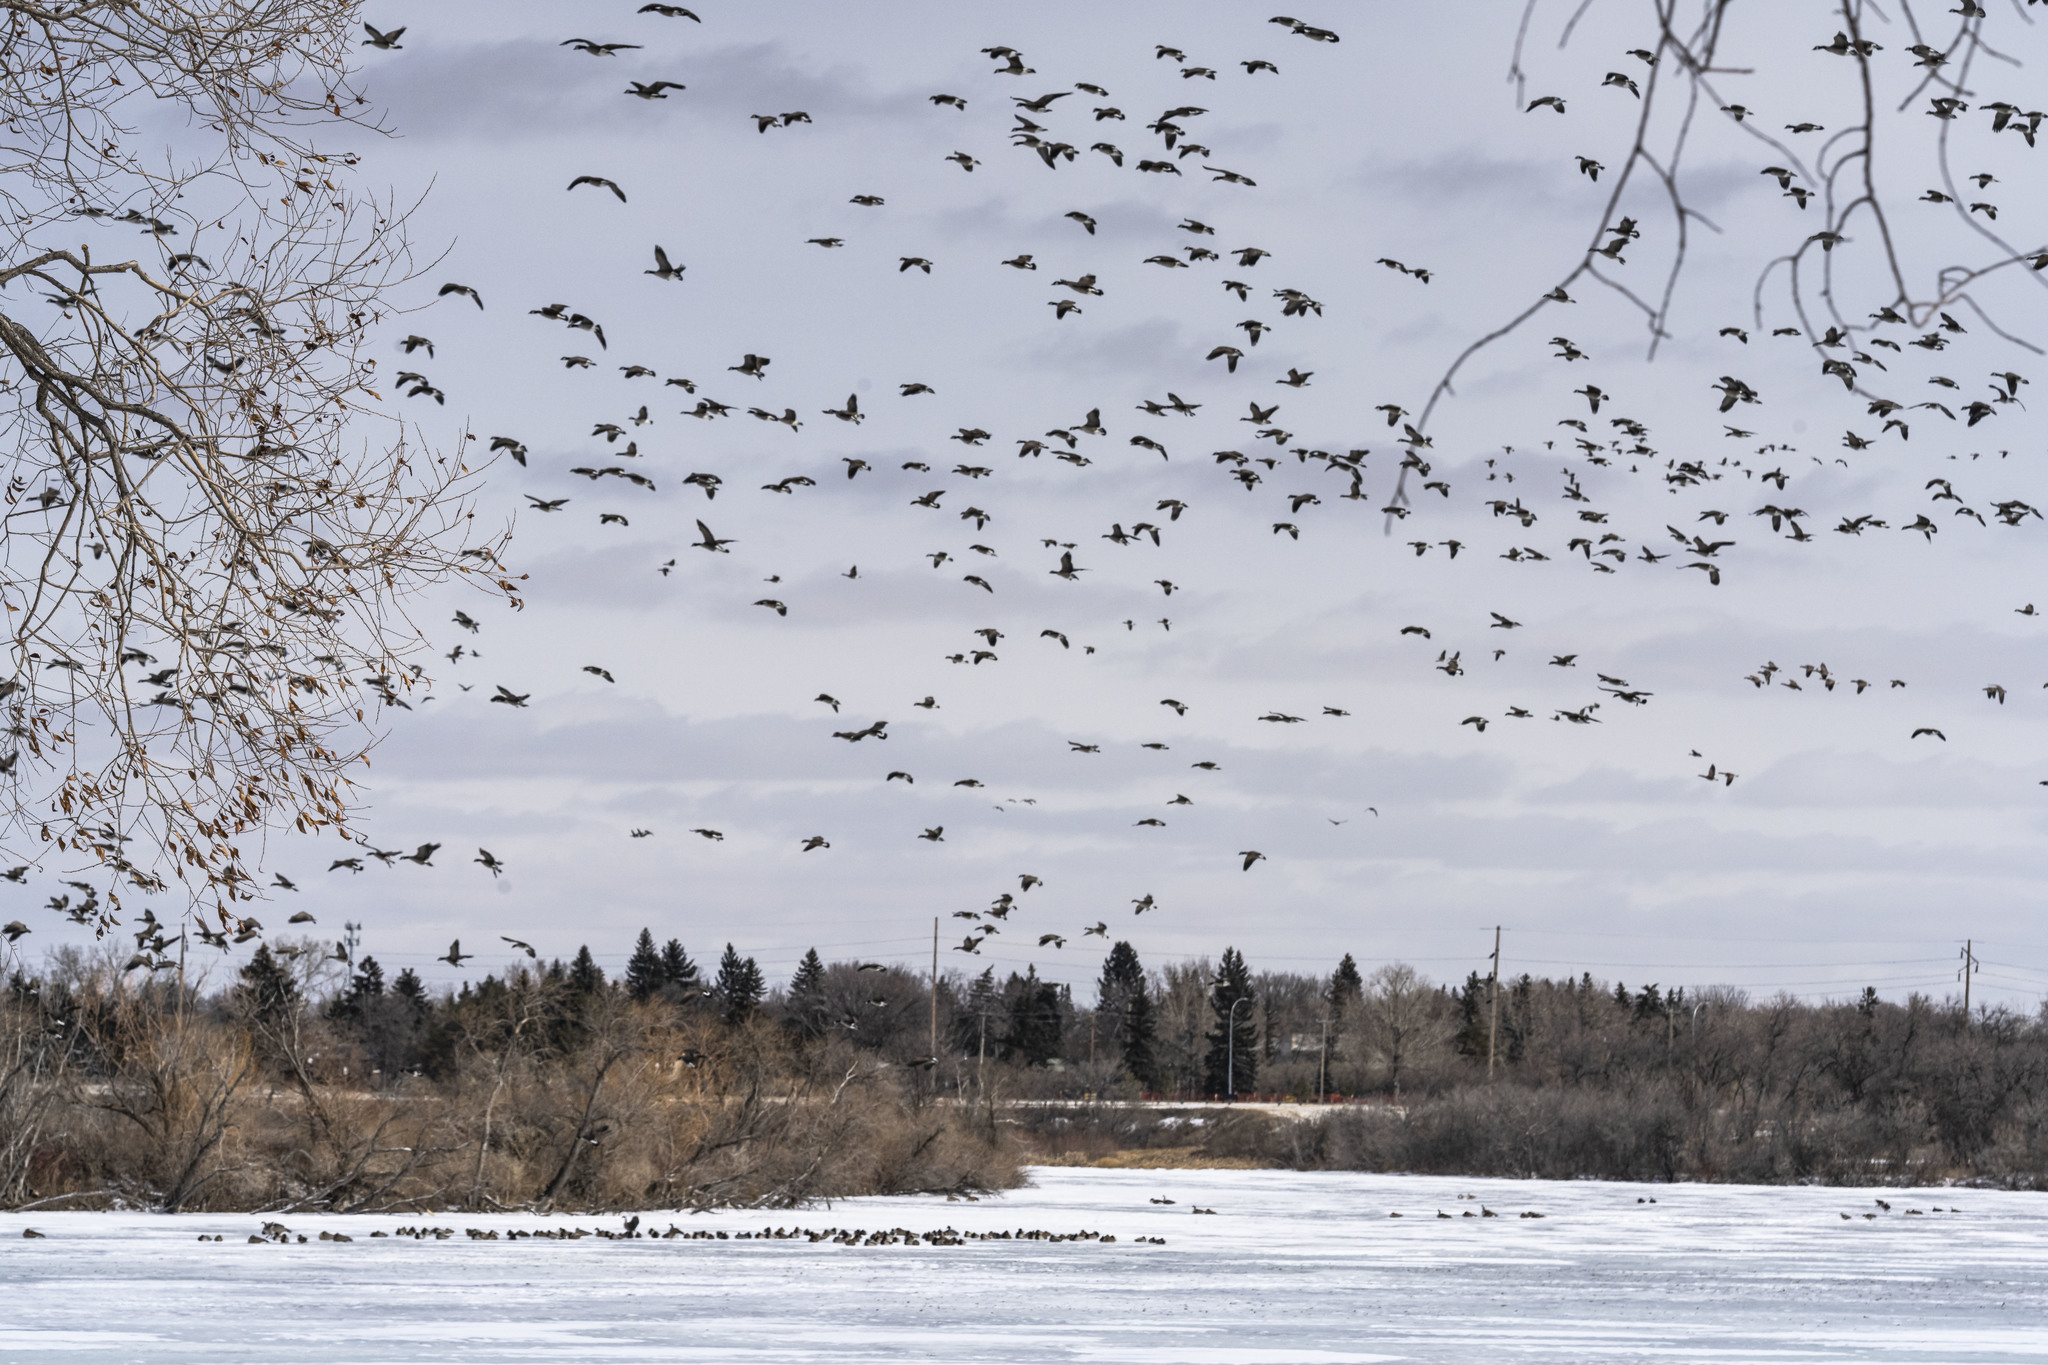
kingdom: Animalia
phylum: Chordata
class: Aves
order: Anseriformes
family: Anatidae
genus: Branta
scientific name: Branta canadensis
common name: Canada goose
